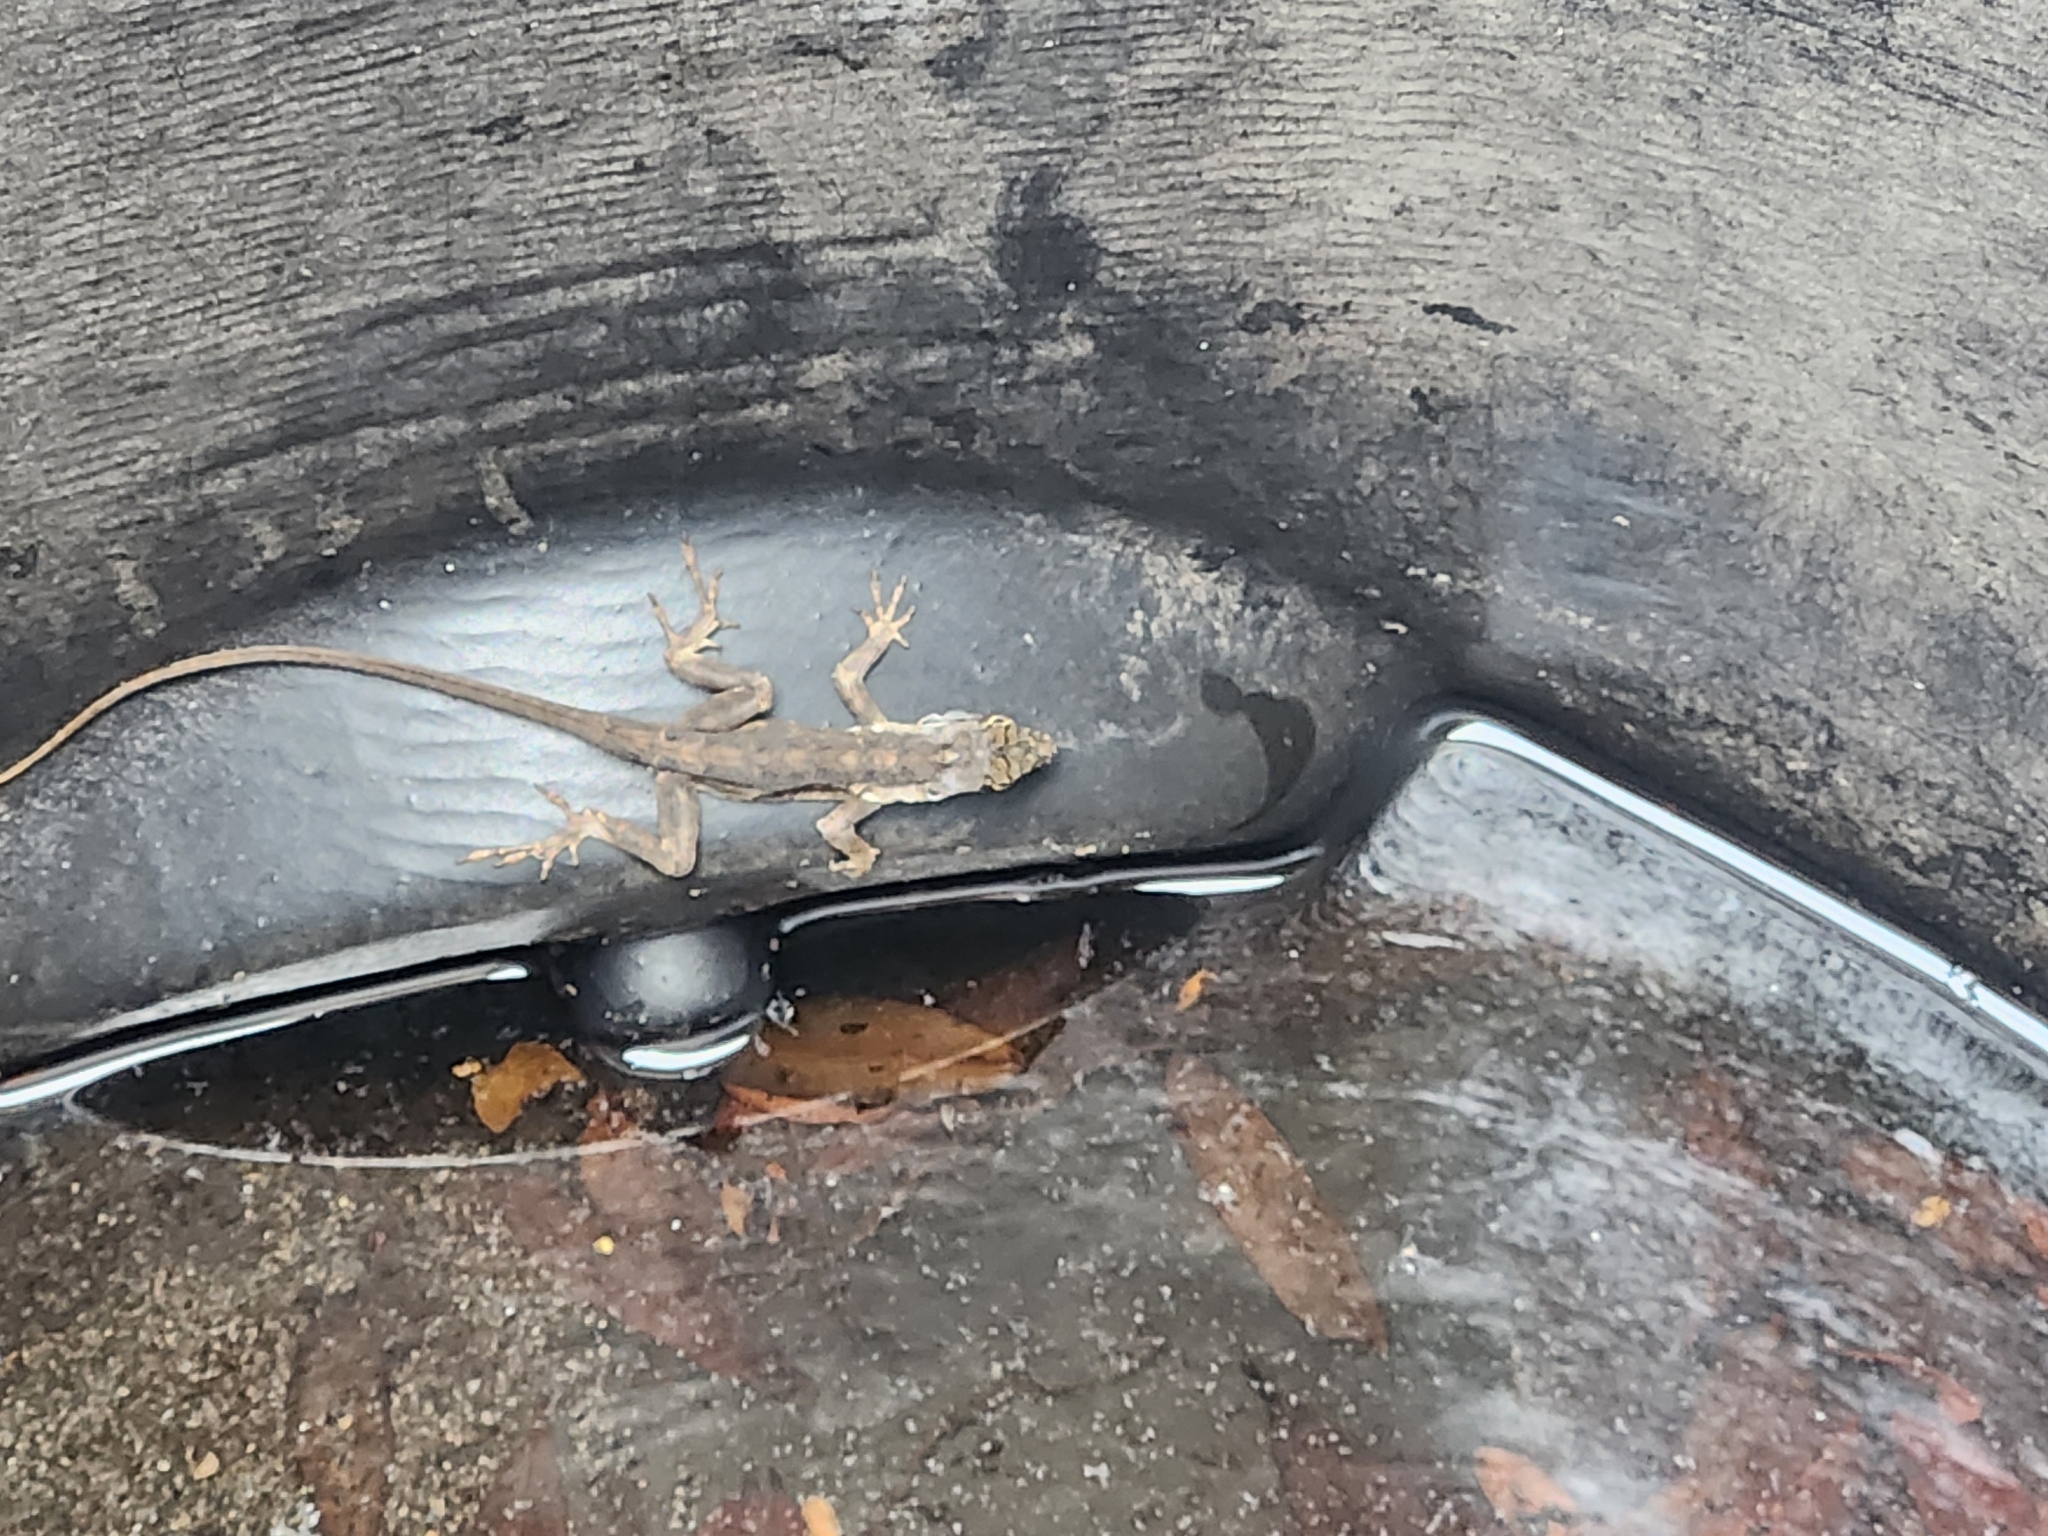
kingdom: Animalia
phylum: Chordata
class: Squamata
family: Dactyloidae
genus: Anolis
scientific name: Anolis sagrei
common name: Brown anole
